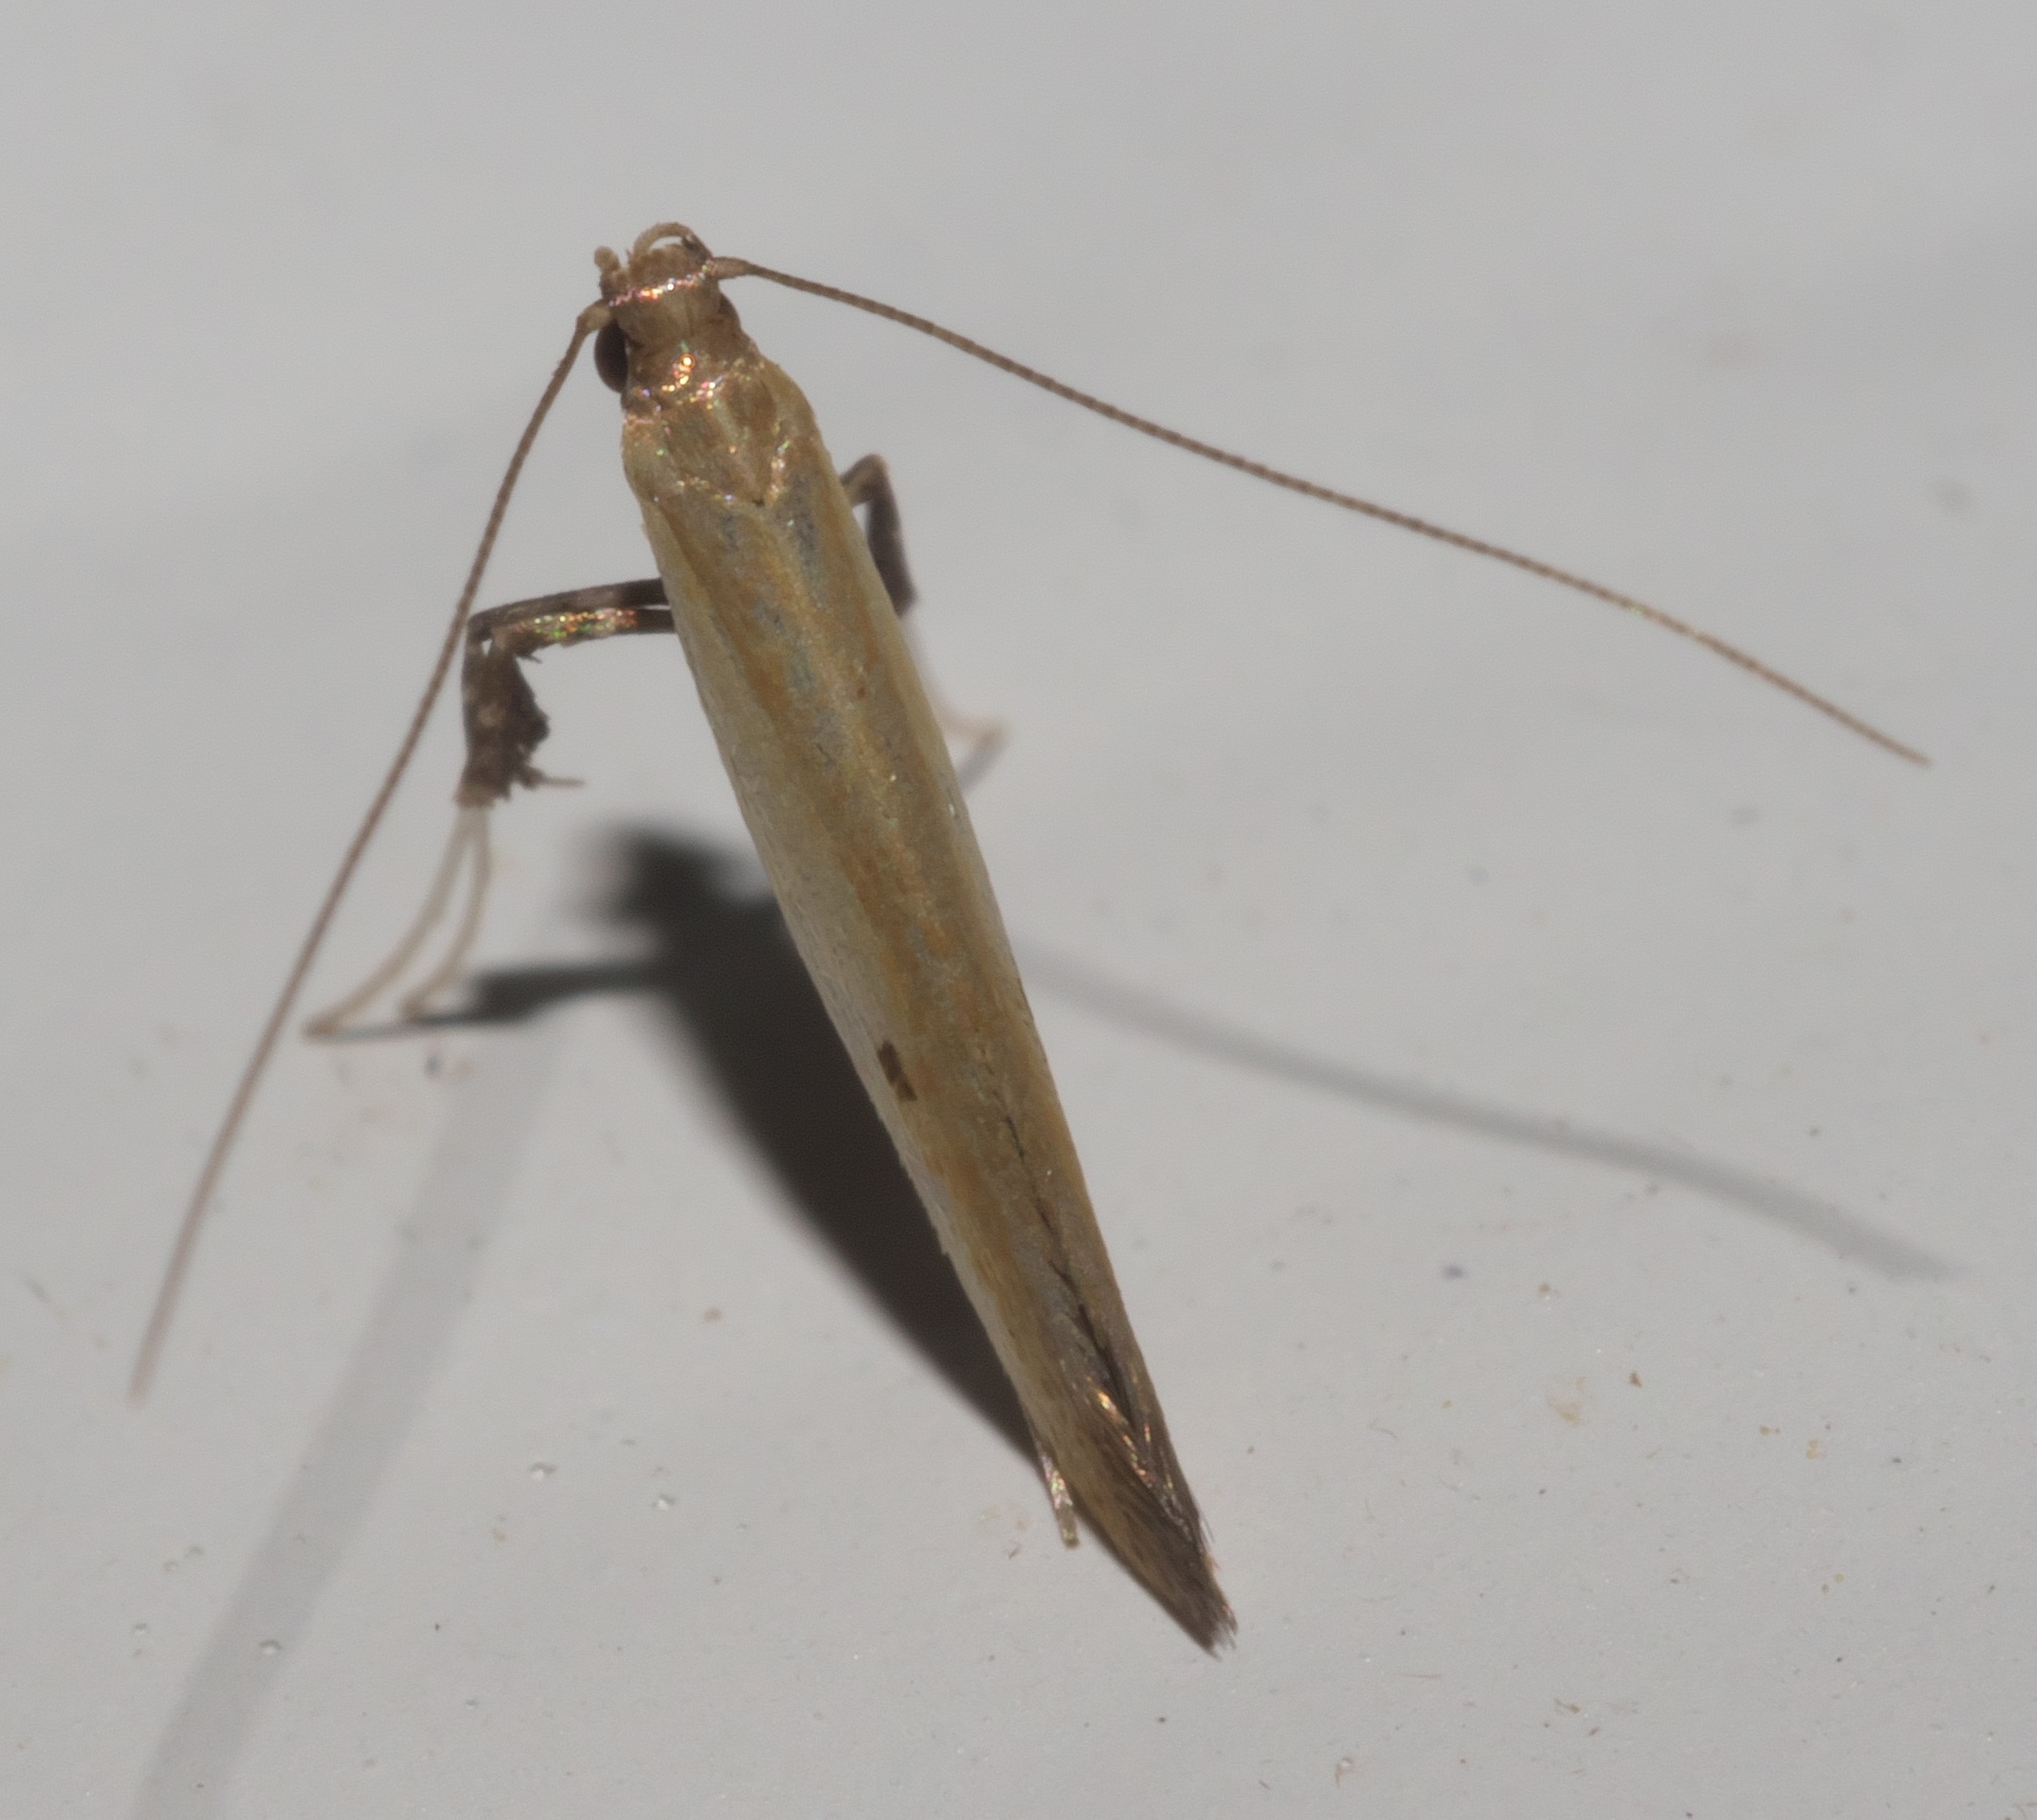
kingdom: Animalia
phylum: Arthropoda
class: Insecta
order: Lepidoptera
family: Gracillariidae
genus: Caloptilia
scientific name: Caloptilia violacella
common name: Tick-trefoil caloptilia moth
